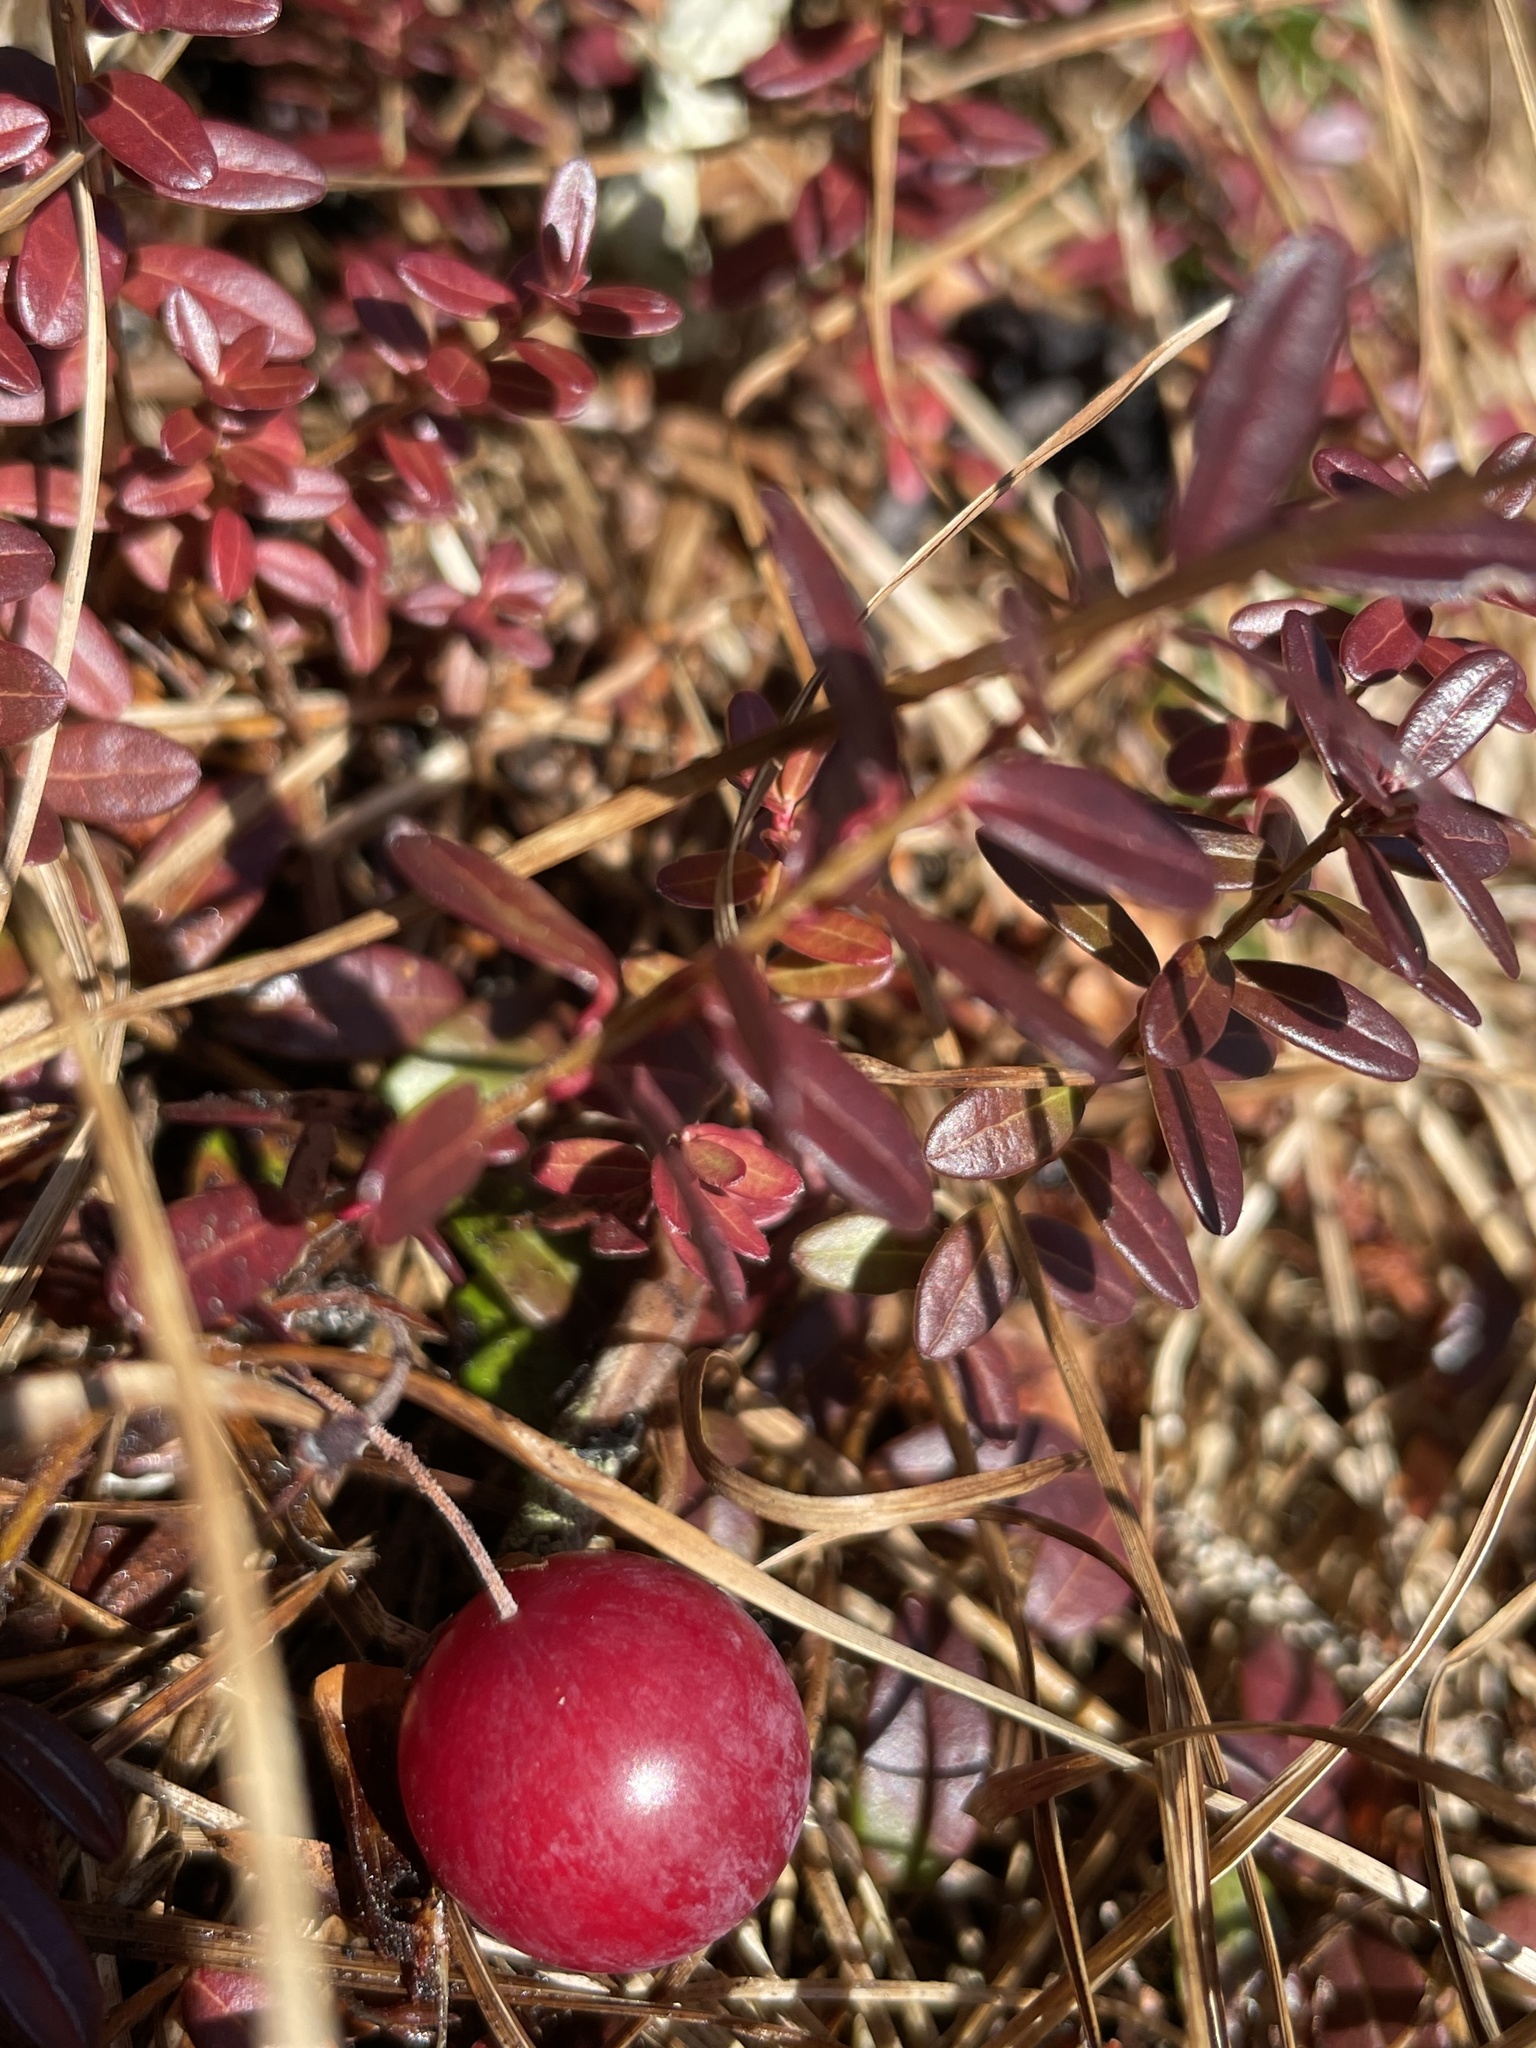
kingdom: Plantae
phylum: Tracheophyta
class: Magnoliopsida
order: Ericales
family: Ericaceae
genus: Vaccinium
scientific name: Vaccinium macrocarpon
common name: American cranberry
